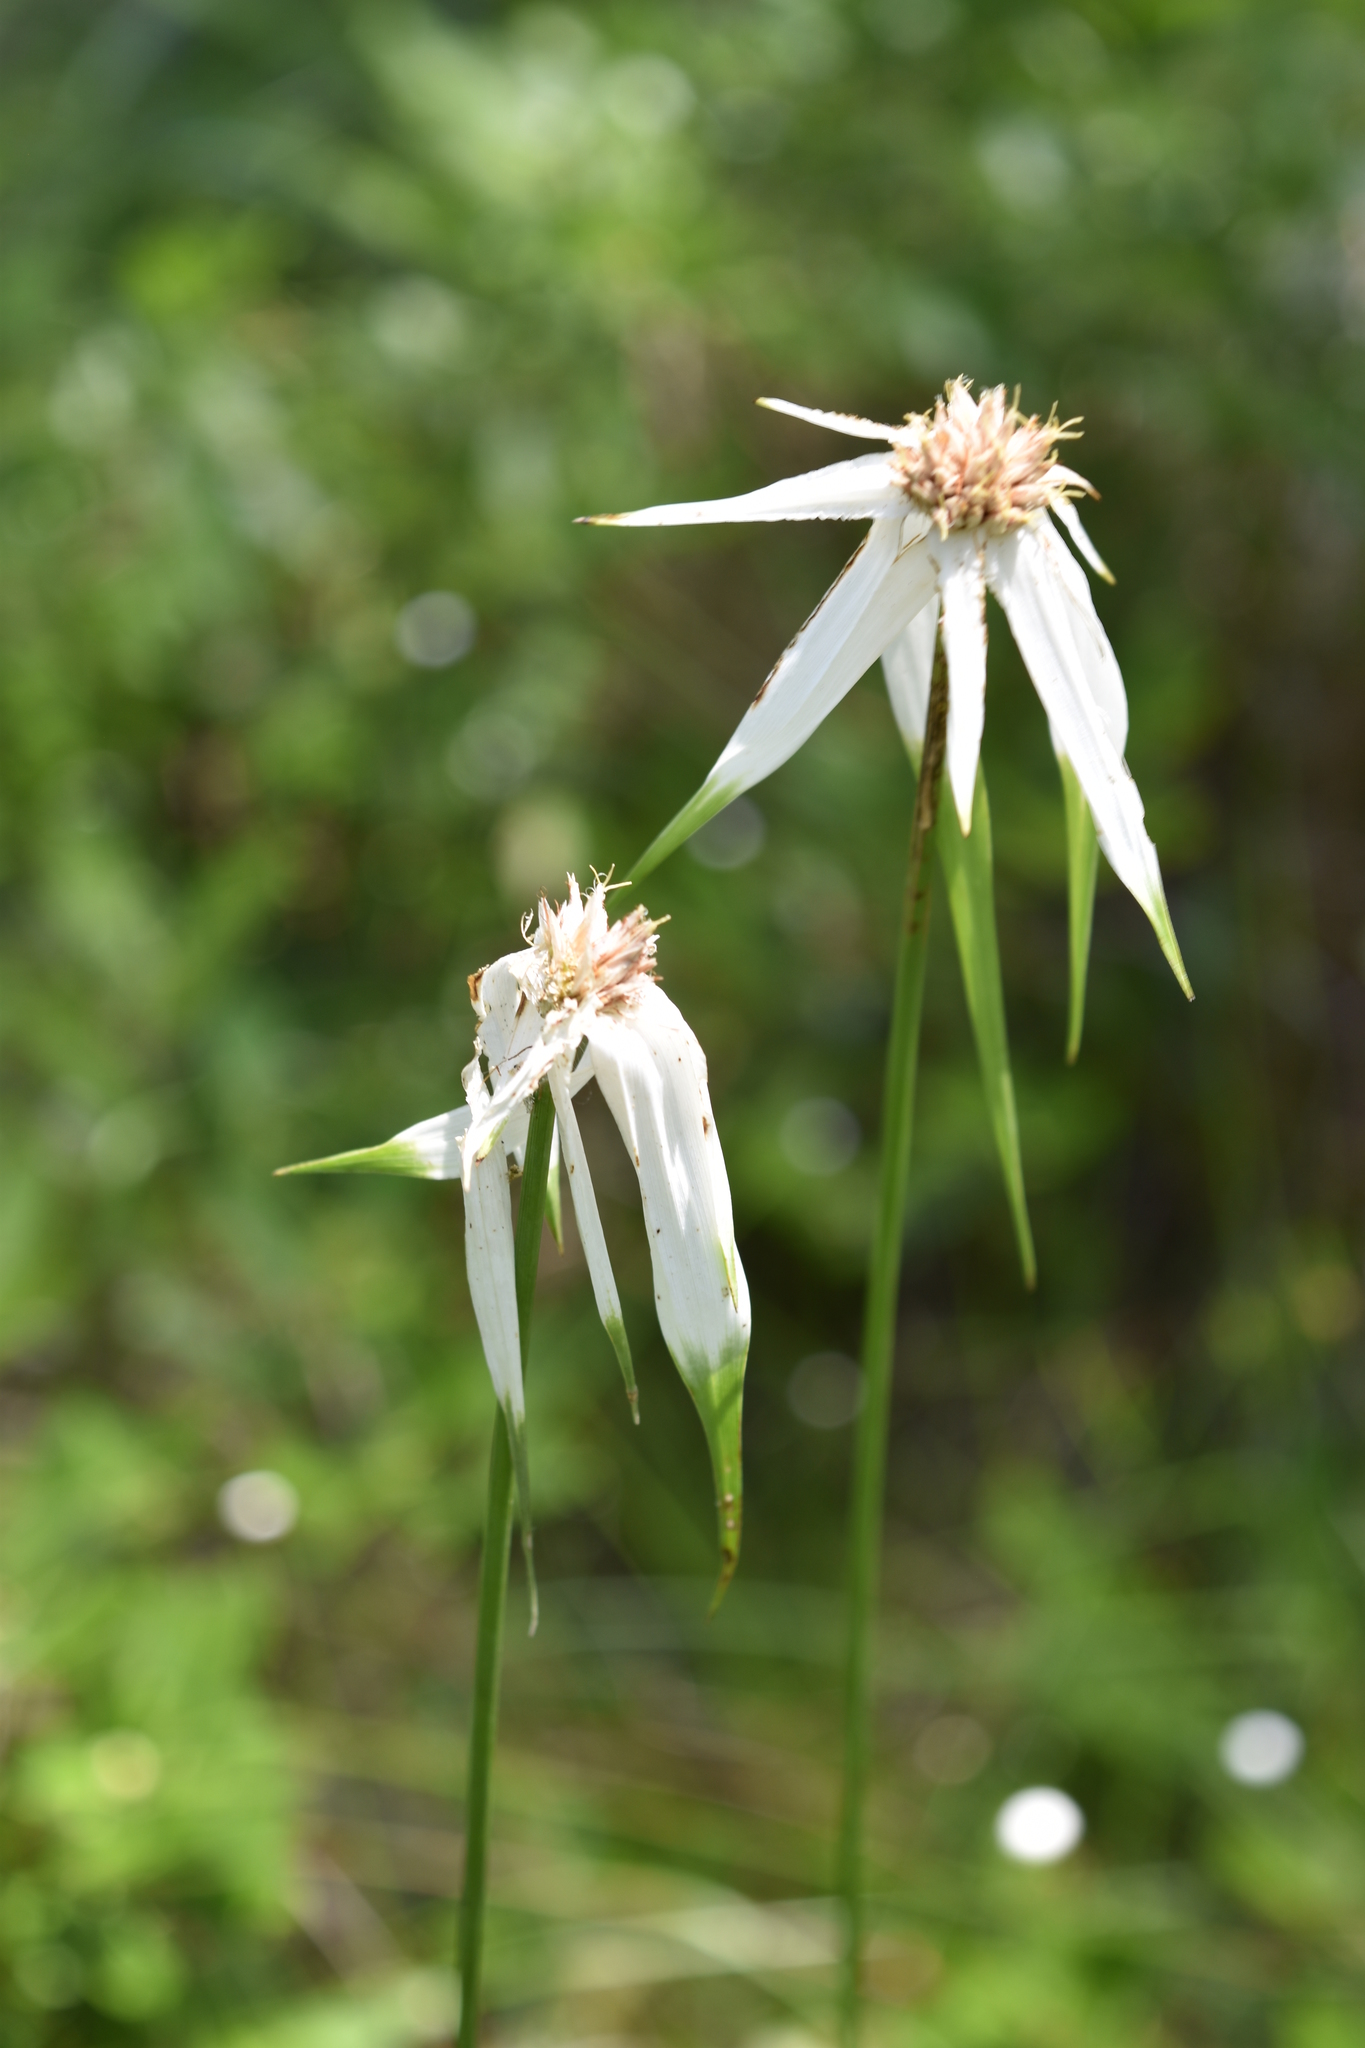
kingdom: Plantae
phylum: Tracheophyta
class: Liliopsida
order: Poales
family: Cyperaceae
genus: Rhynchospora
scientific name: Rhynchospora colorata
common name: Star sedge
